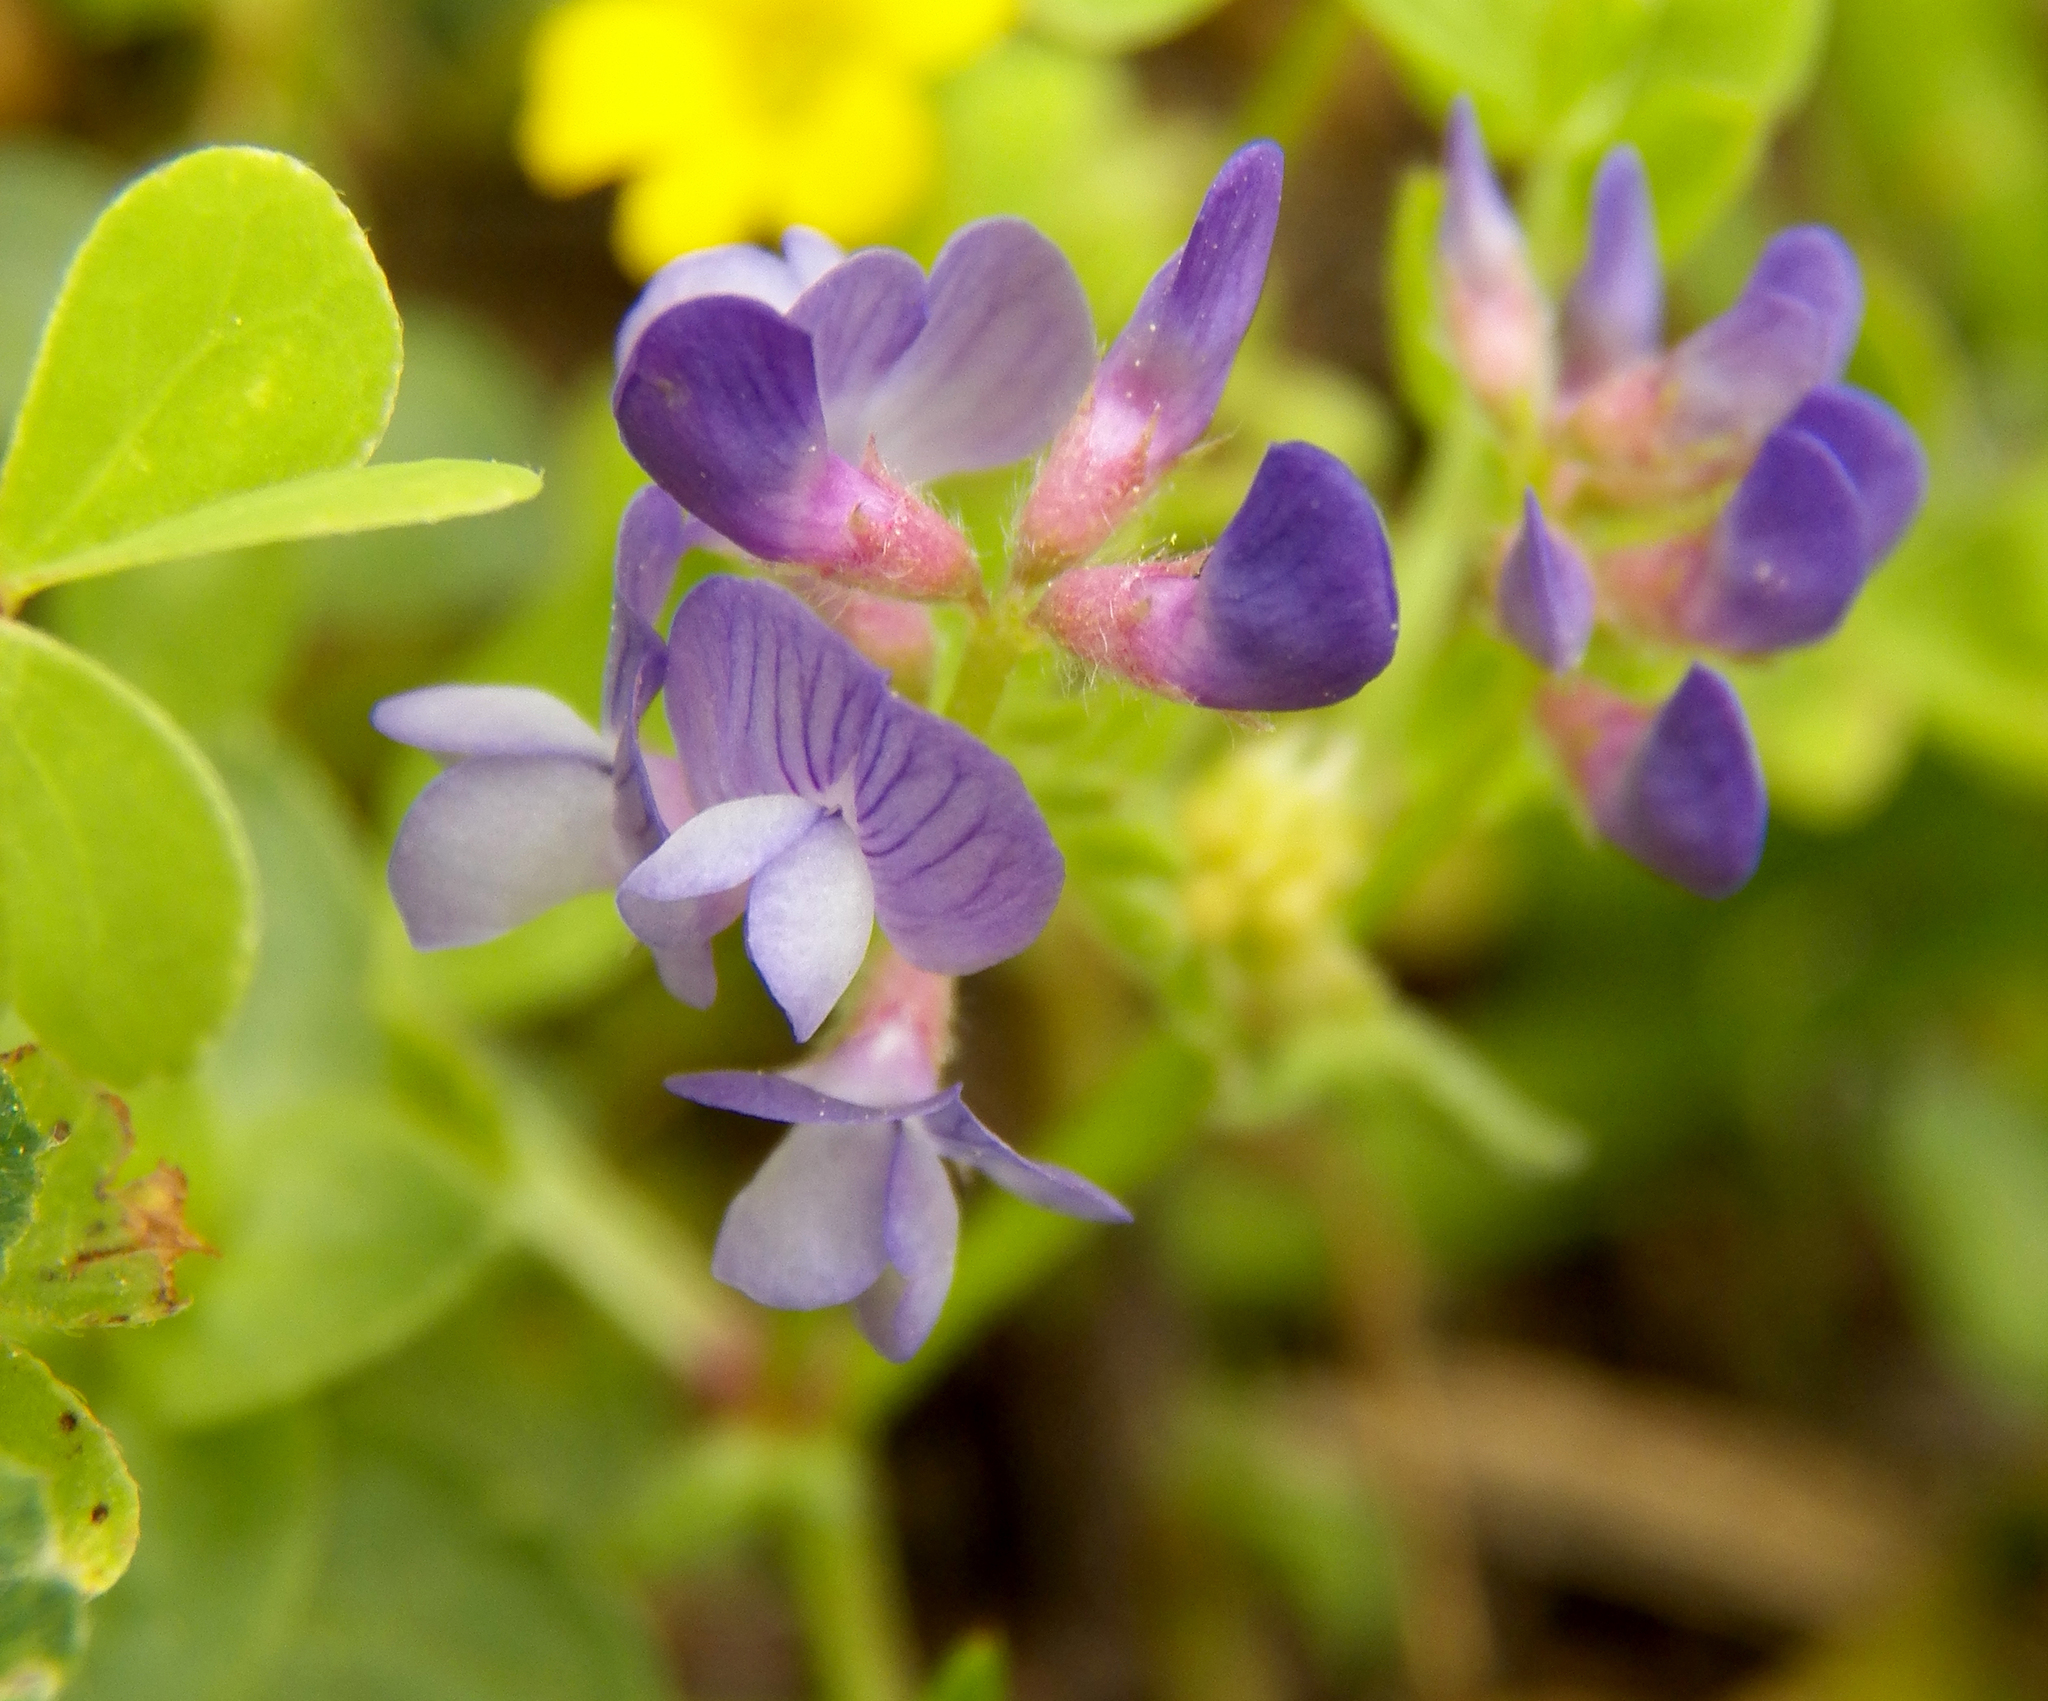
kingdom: Plantae
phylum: Tracheophyta
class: Magnoliopsida
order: Fabales
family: Fabaceae
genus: Vicia
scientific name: Vicia ludoviciana
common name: Louisiana vetch
